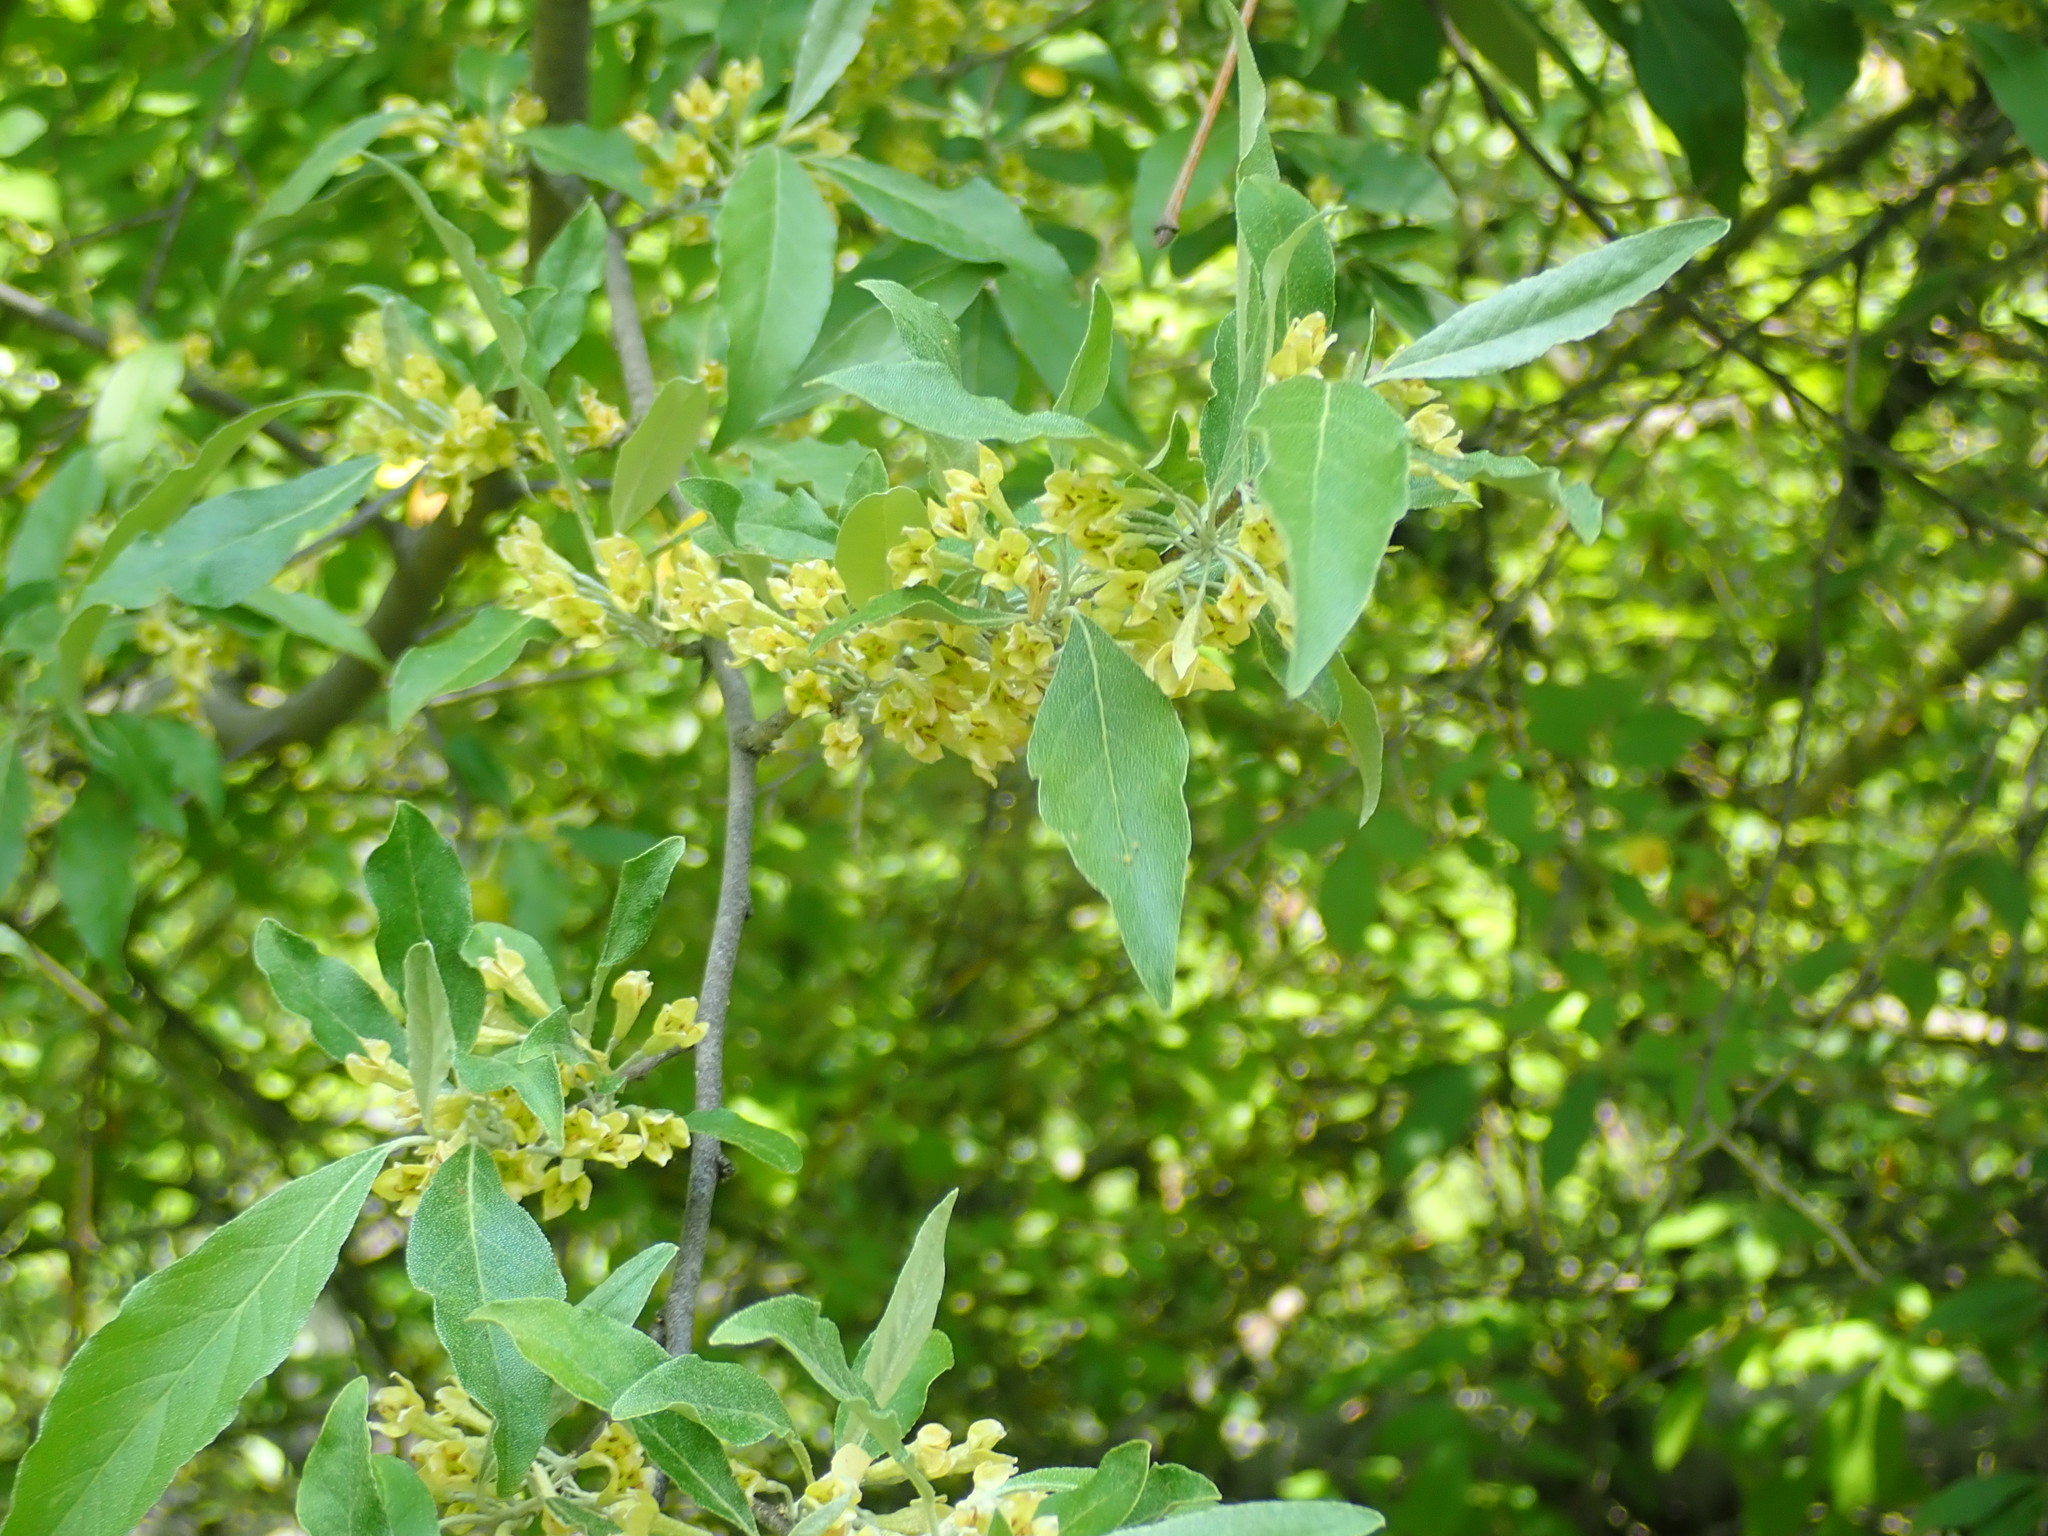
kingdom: Plantae
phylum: Tracheophyta
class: Magnoliopsida
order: Rosales
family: Elaeagnaceae
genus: Elaeagnus
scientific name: Elaeagnus umbellata
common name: Autumn olive
